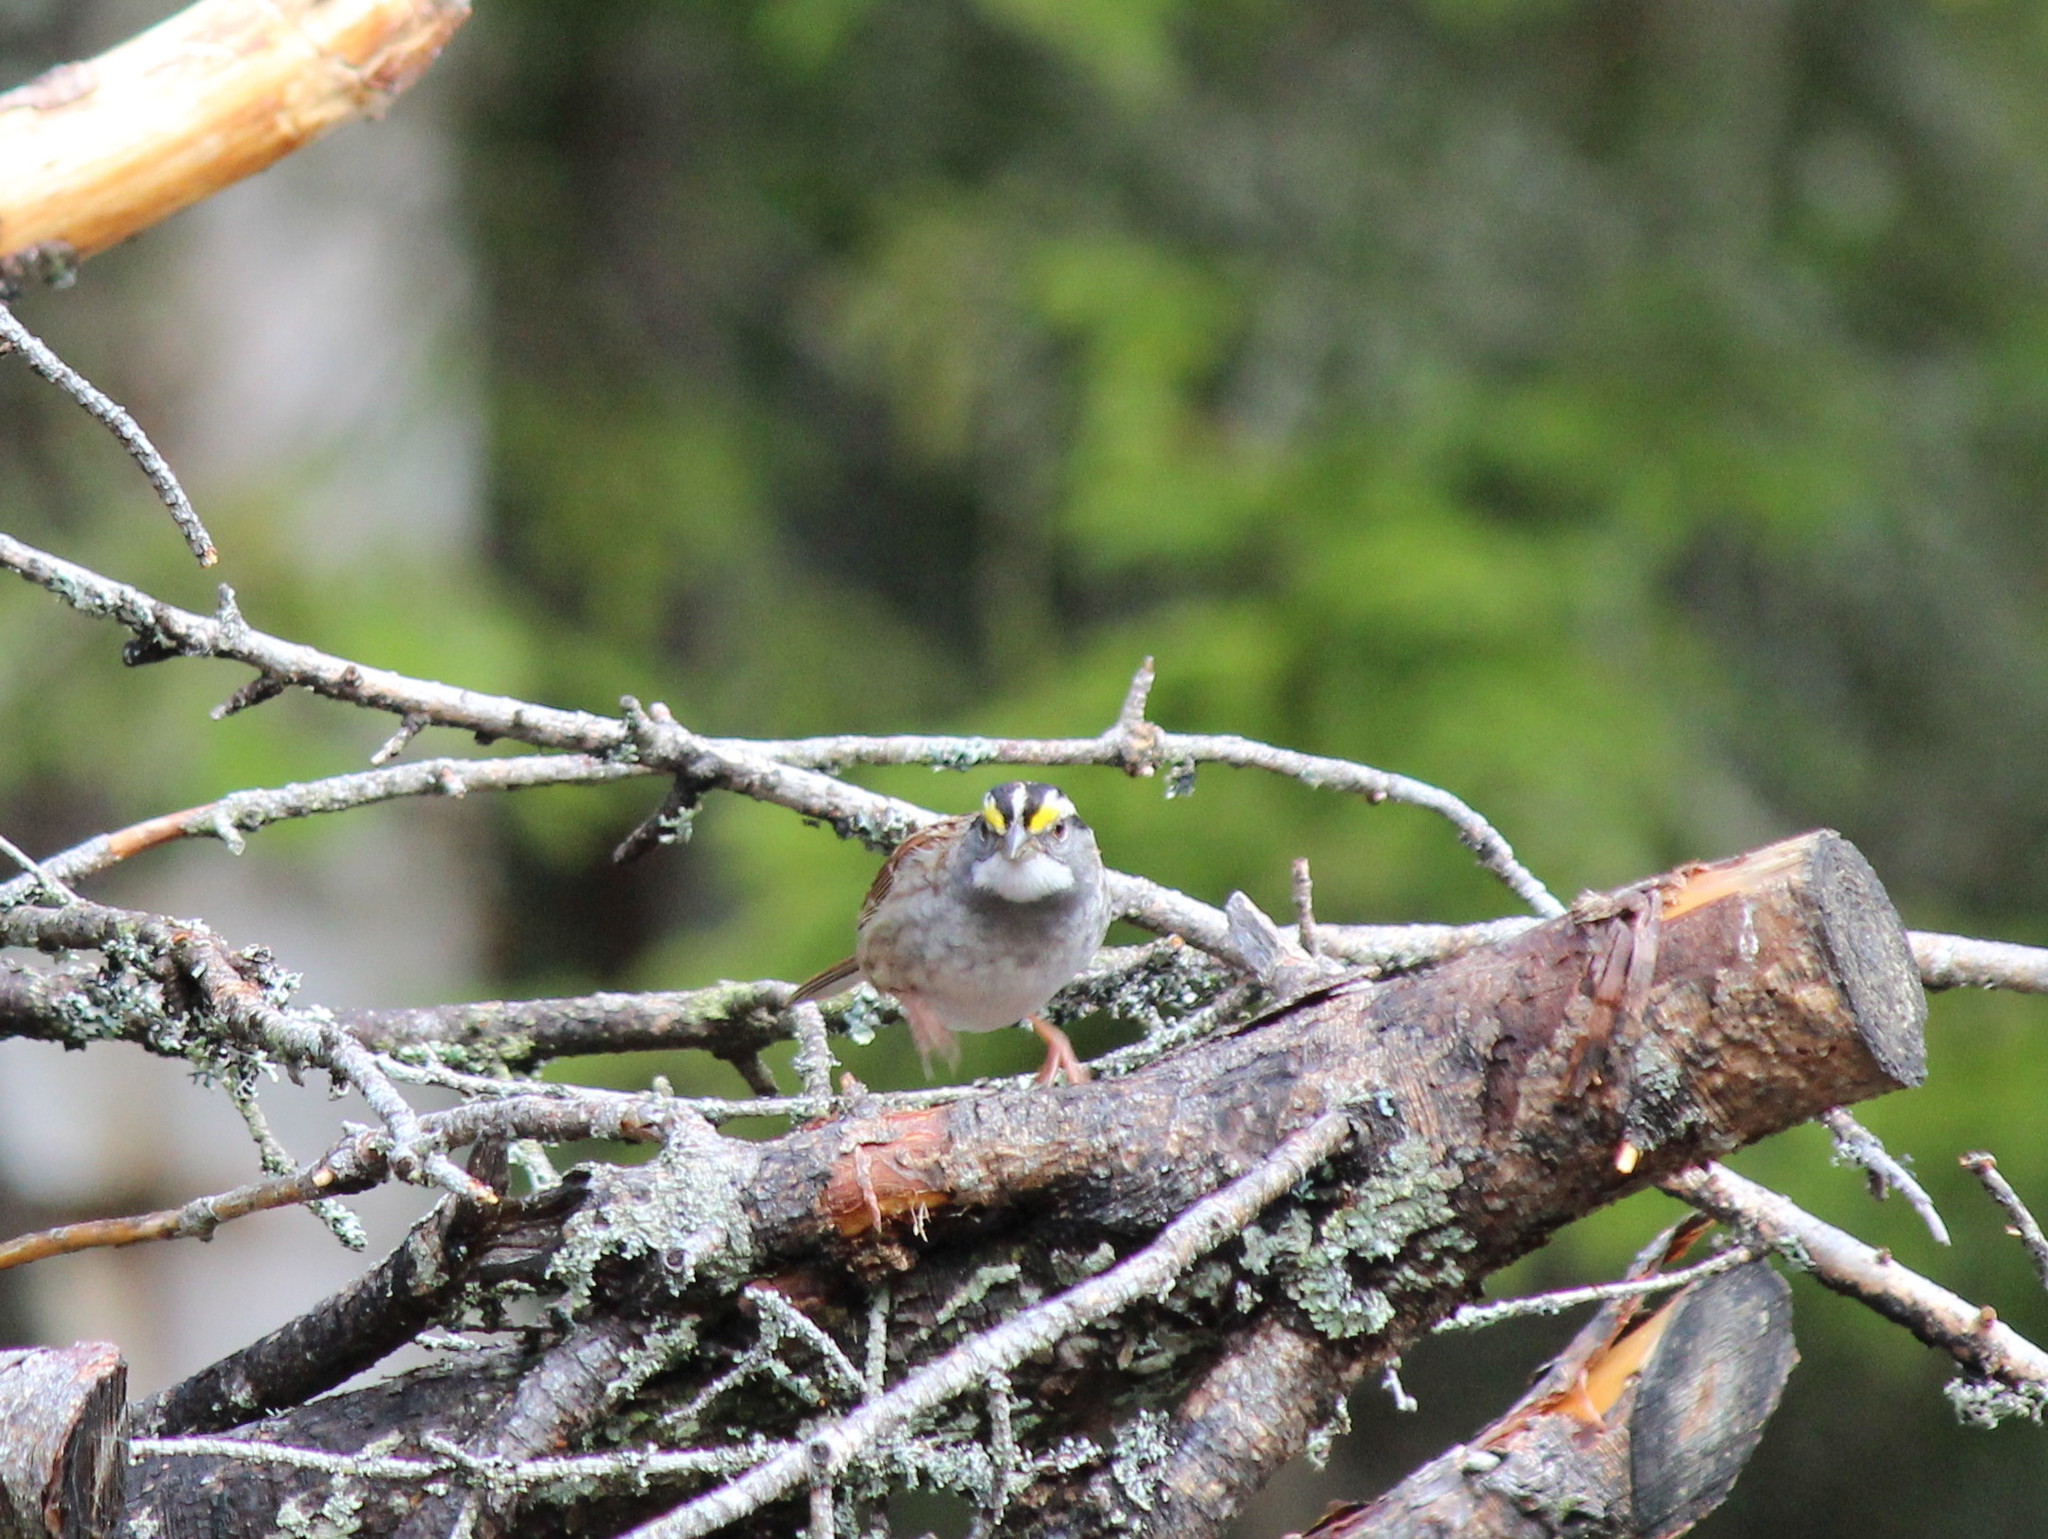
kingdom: Animalia
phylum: Chordata
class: Aves
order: Passeriformes
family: Passerellidae
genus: Zonotrichia
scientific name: Zonotrichia albicollis
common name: White-throated sparrow
